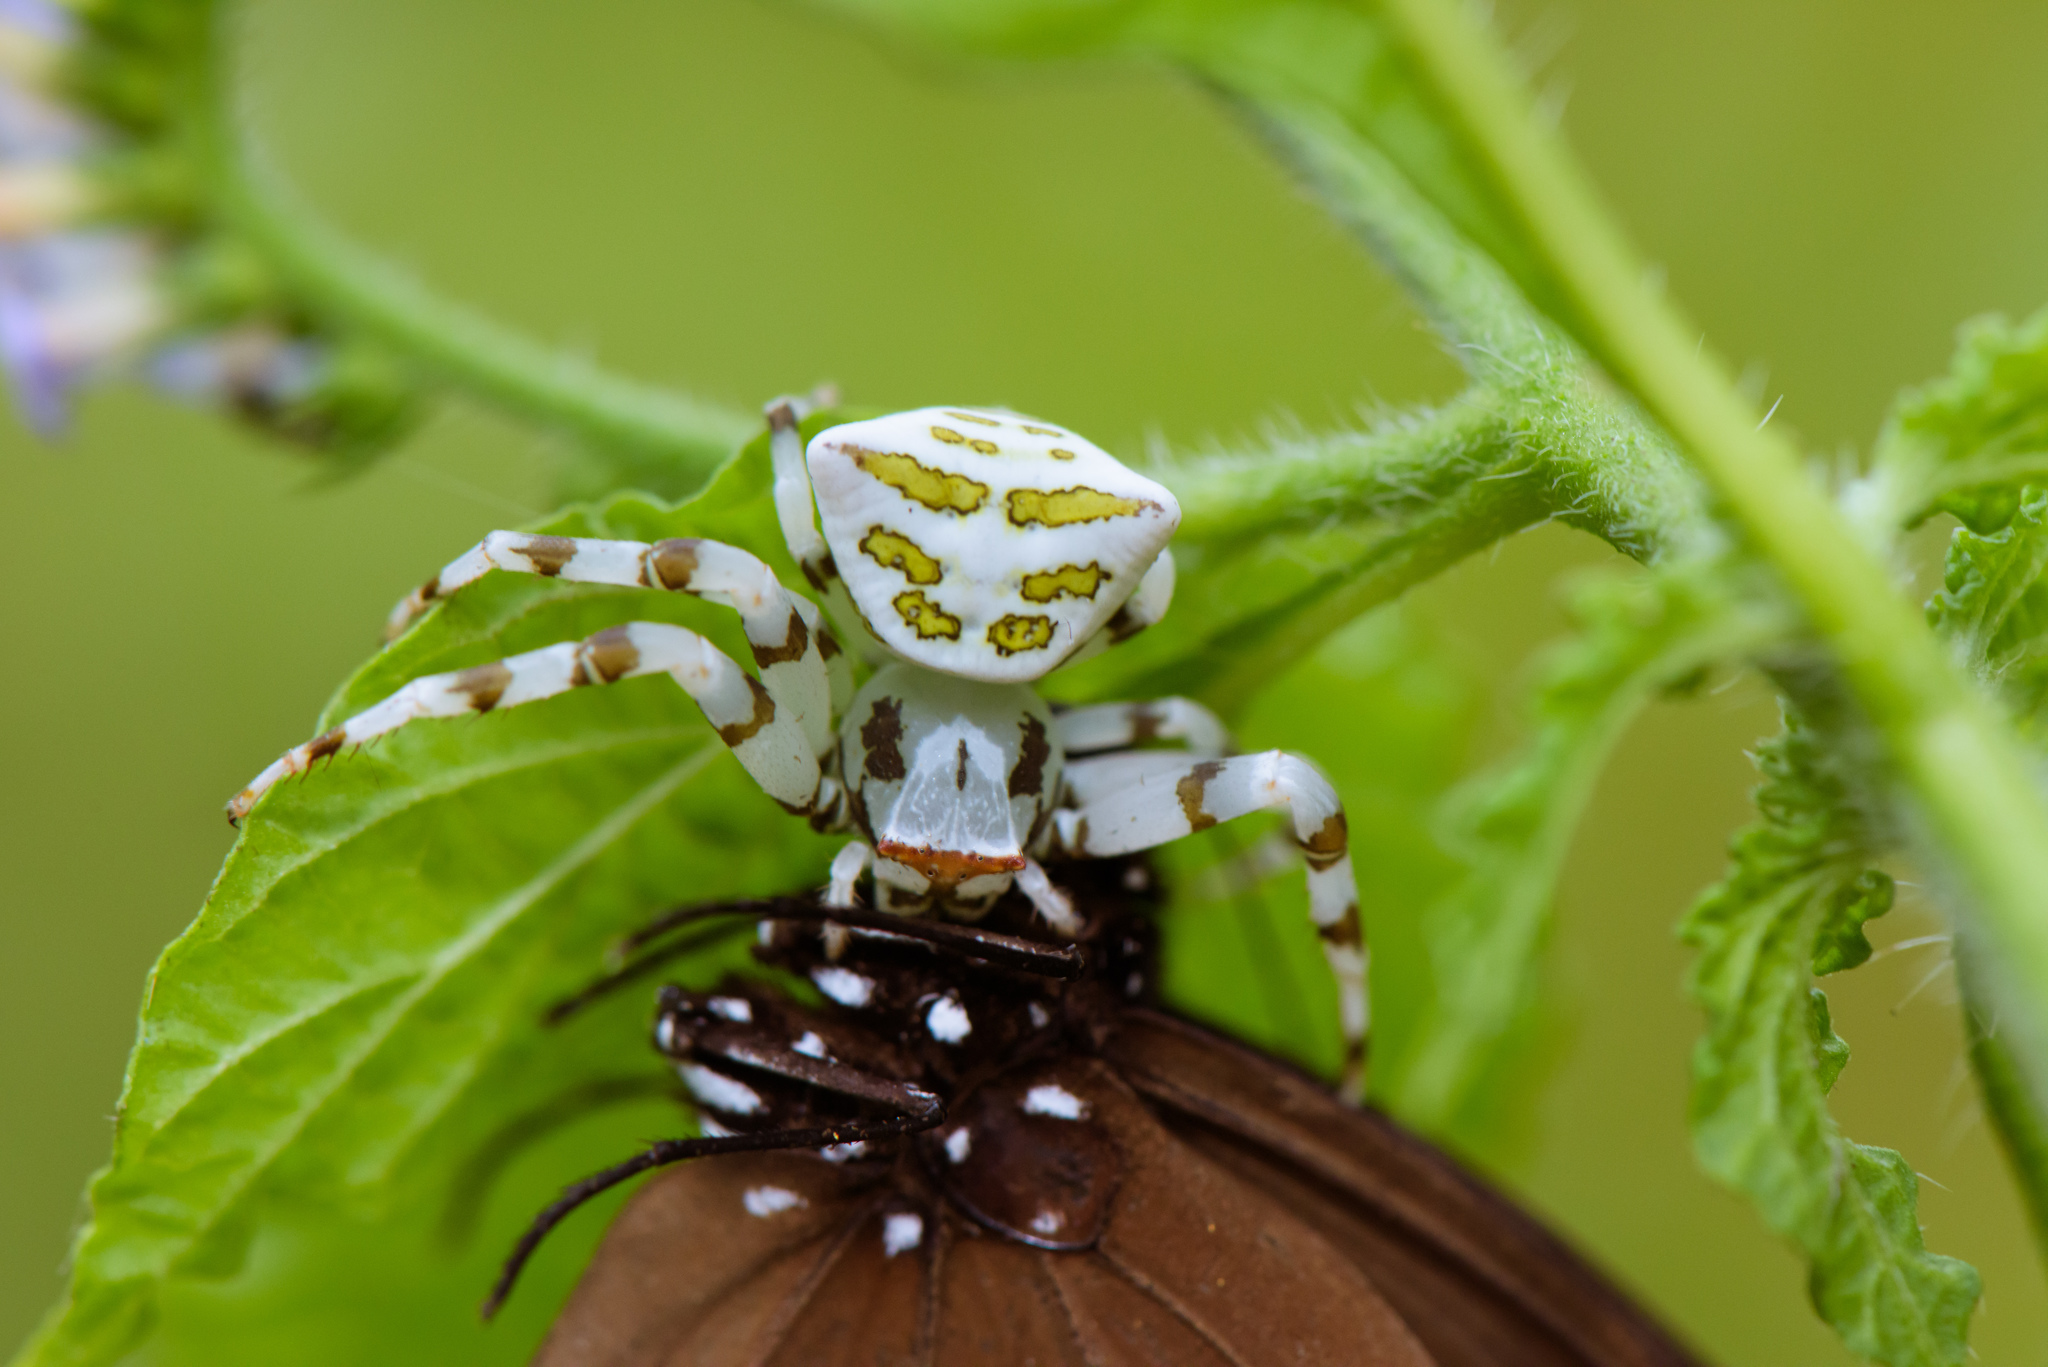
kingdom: Animalia
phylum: Arthropoda
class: Arachnida
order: Araneae
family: Thomisidae
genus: Thomisus
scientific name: Thomisus okinawensis
